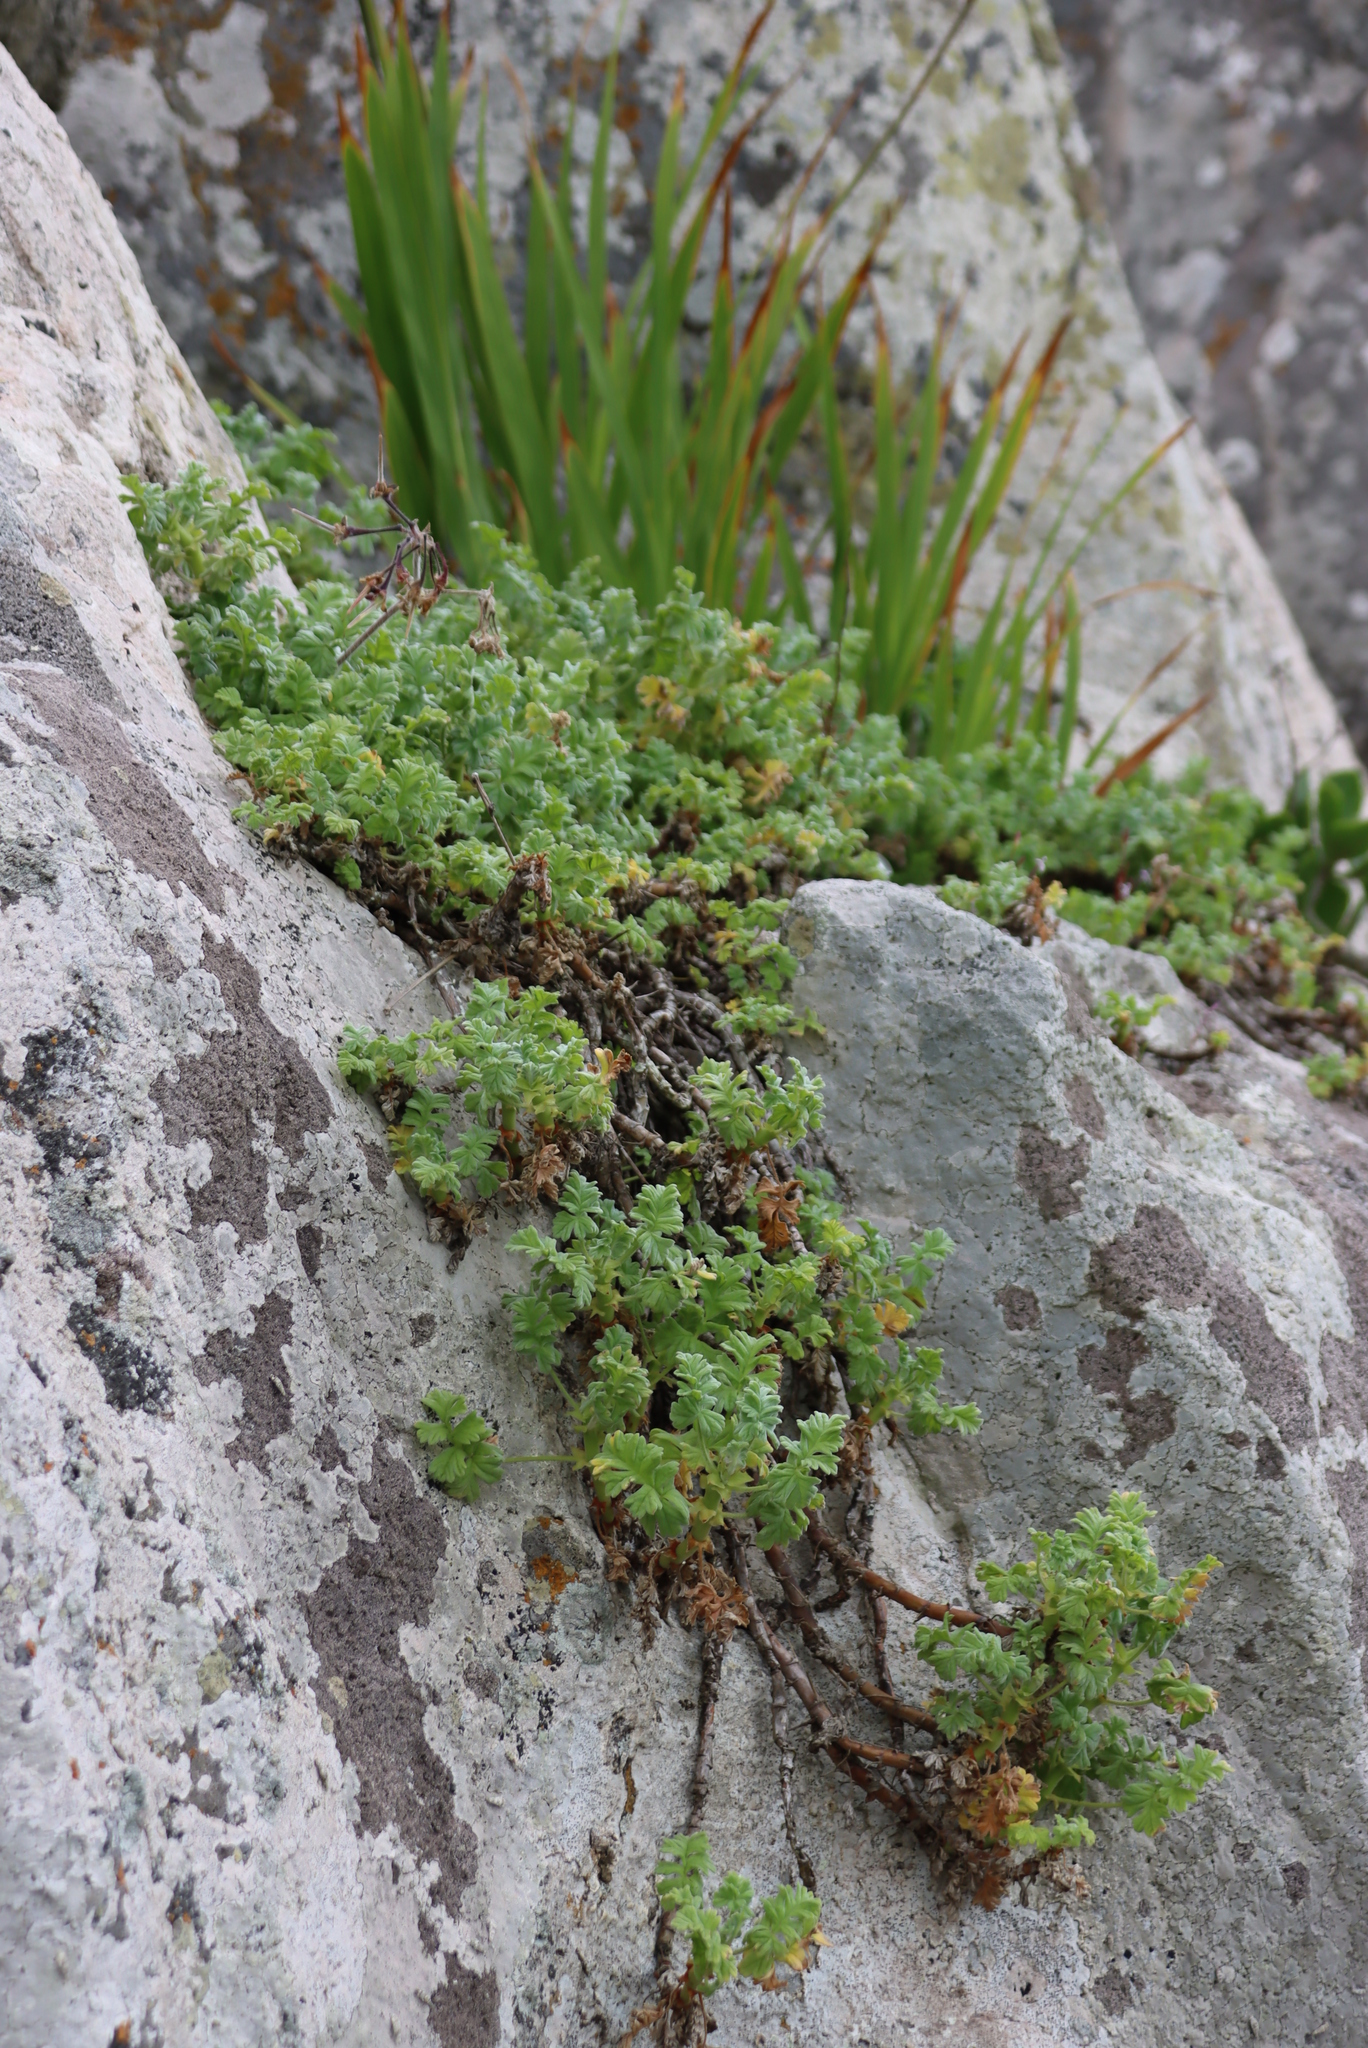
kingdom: Plantae
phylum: Tracheophyta
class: Magnoliopsida
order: Geraniales
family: Geraniaceae
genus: Pelargonium
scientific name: Pelargonium fulgidum
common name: Celandine-leaf pelargonium
